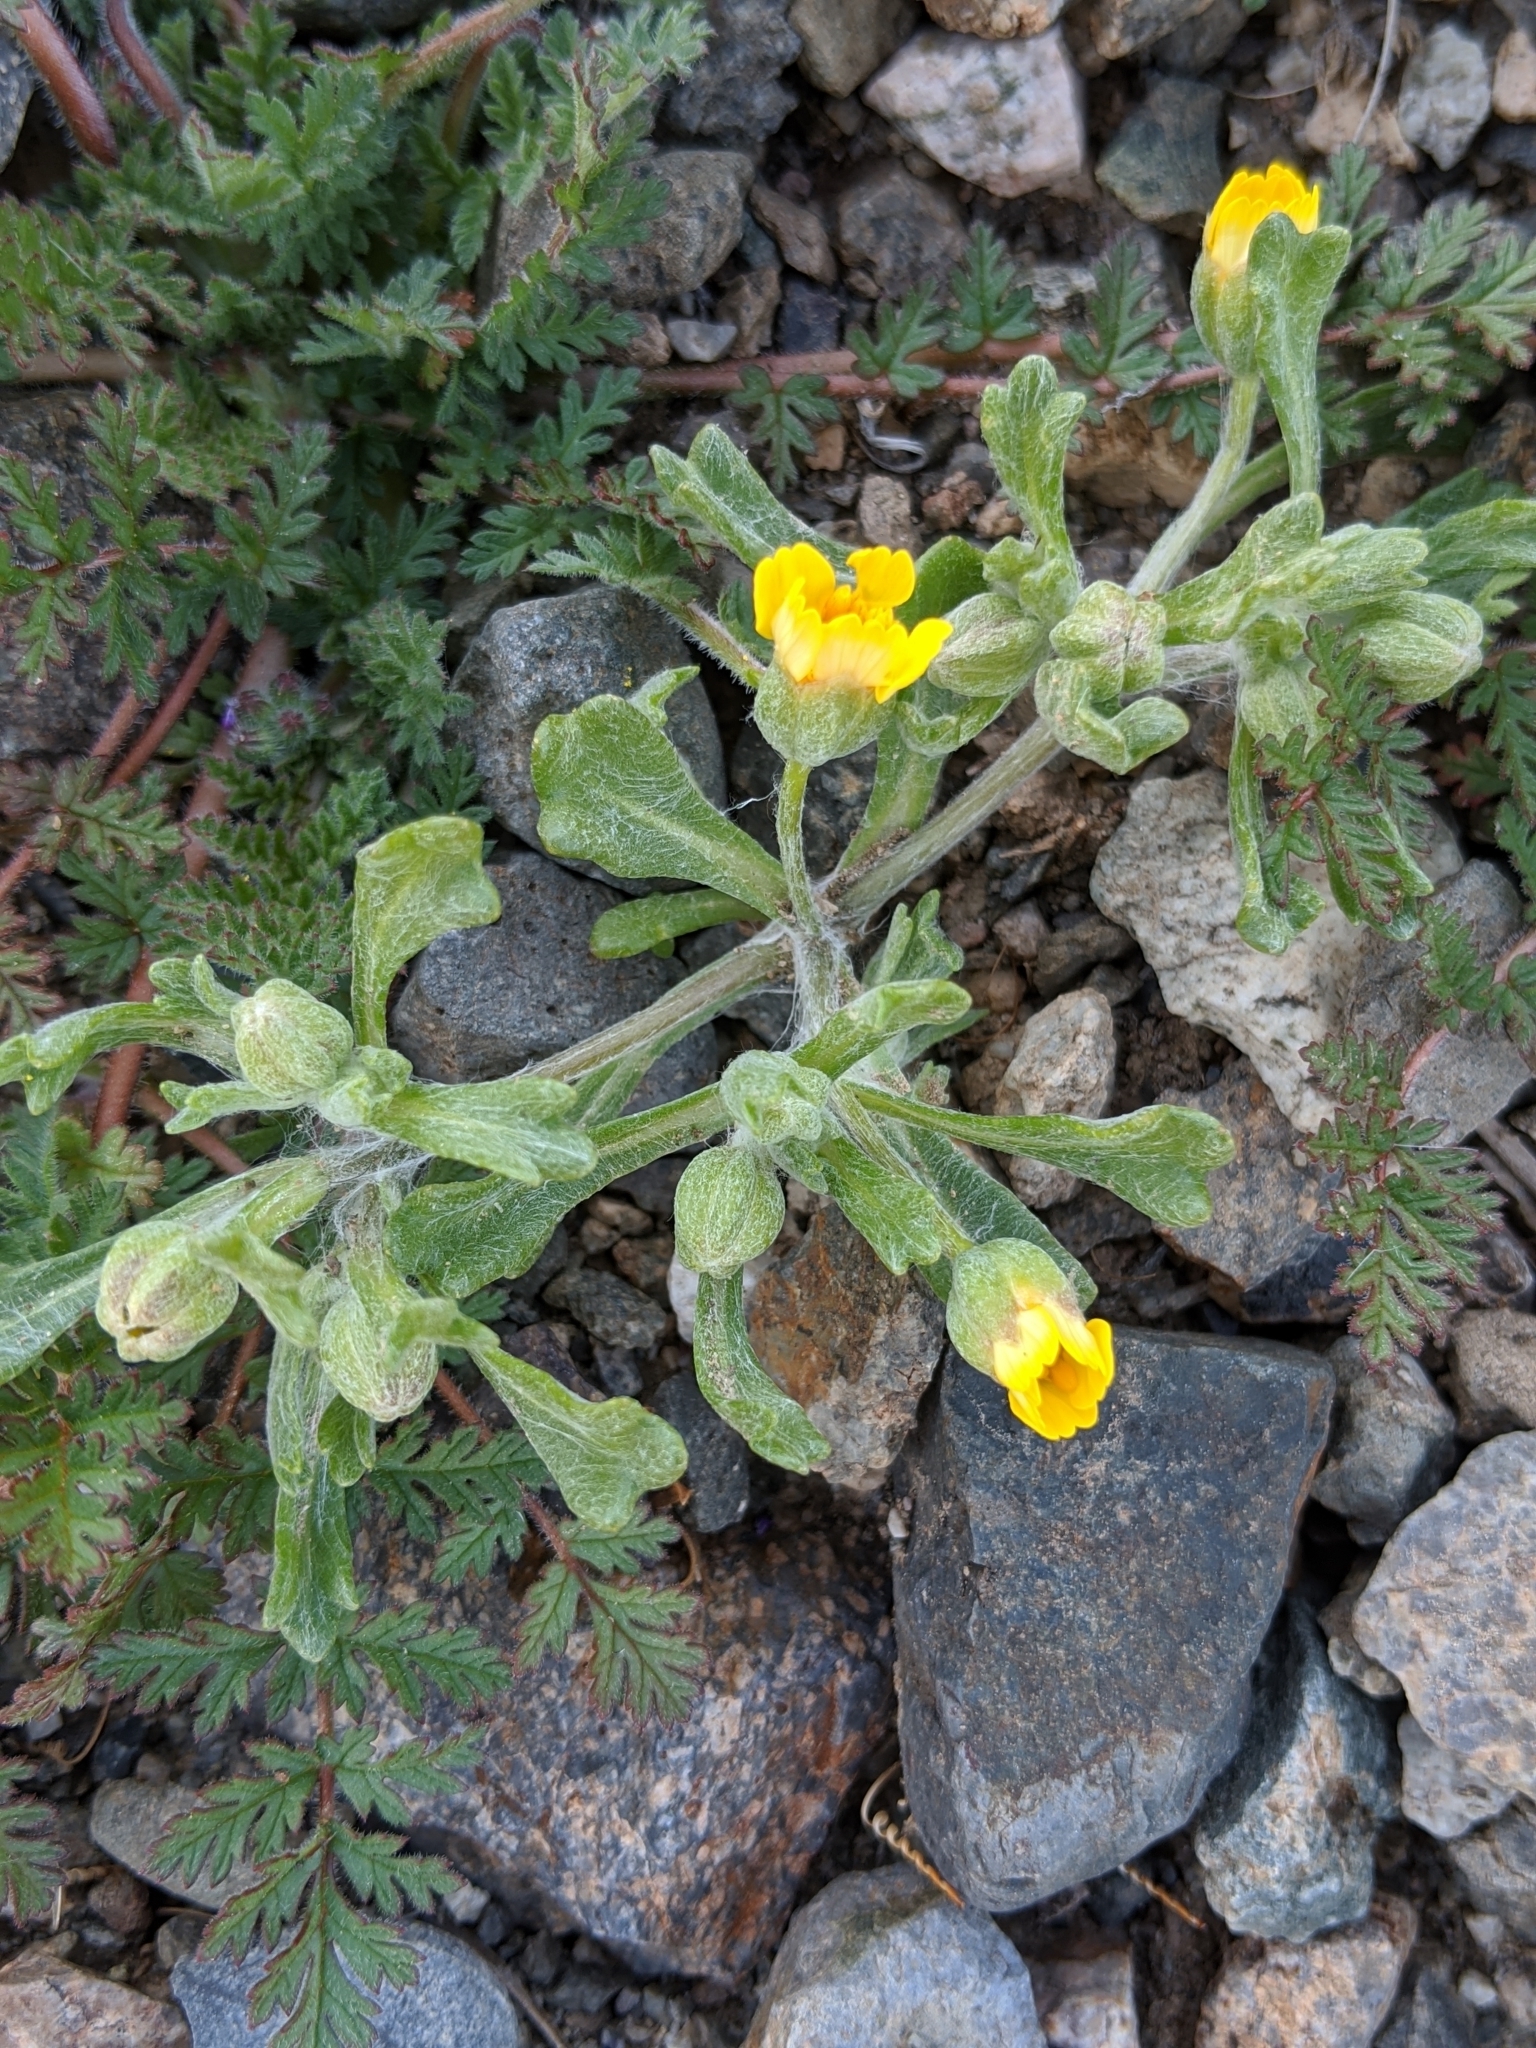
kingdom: Plantae
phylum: Tracheophyta
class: Magnoliopsida
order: Asterales
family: Asteraceae
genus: Eriophyllum
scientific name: Eriophyllum ambiguum
